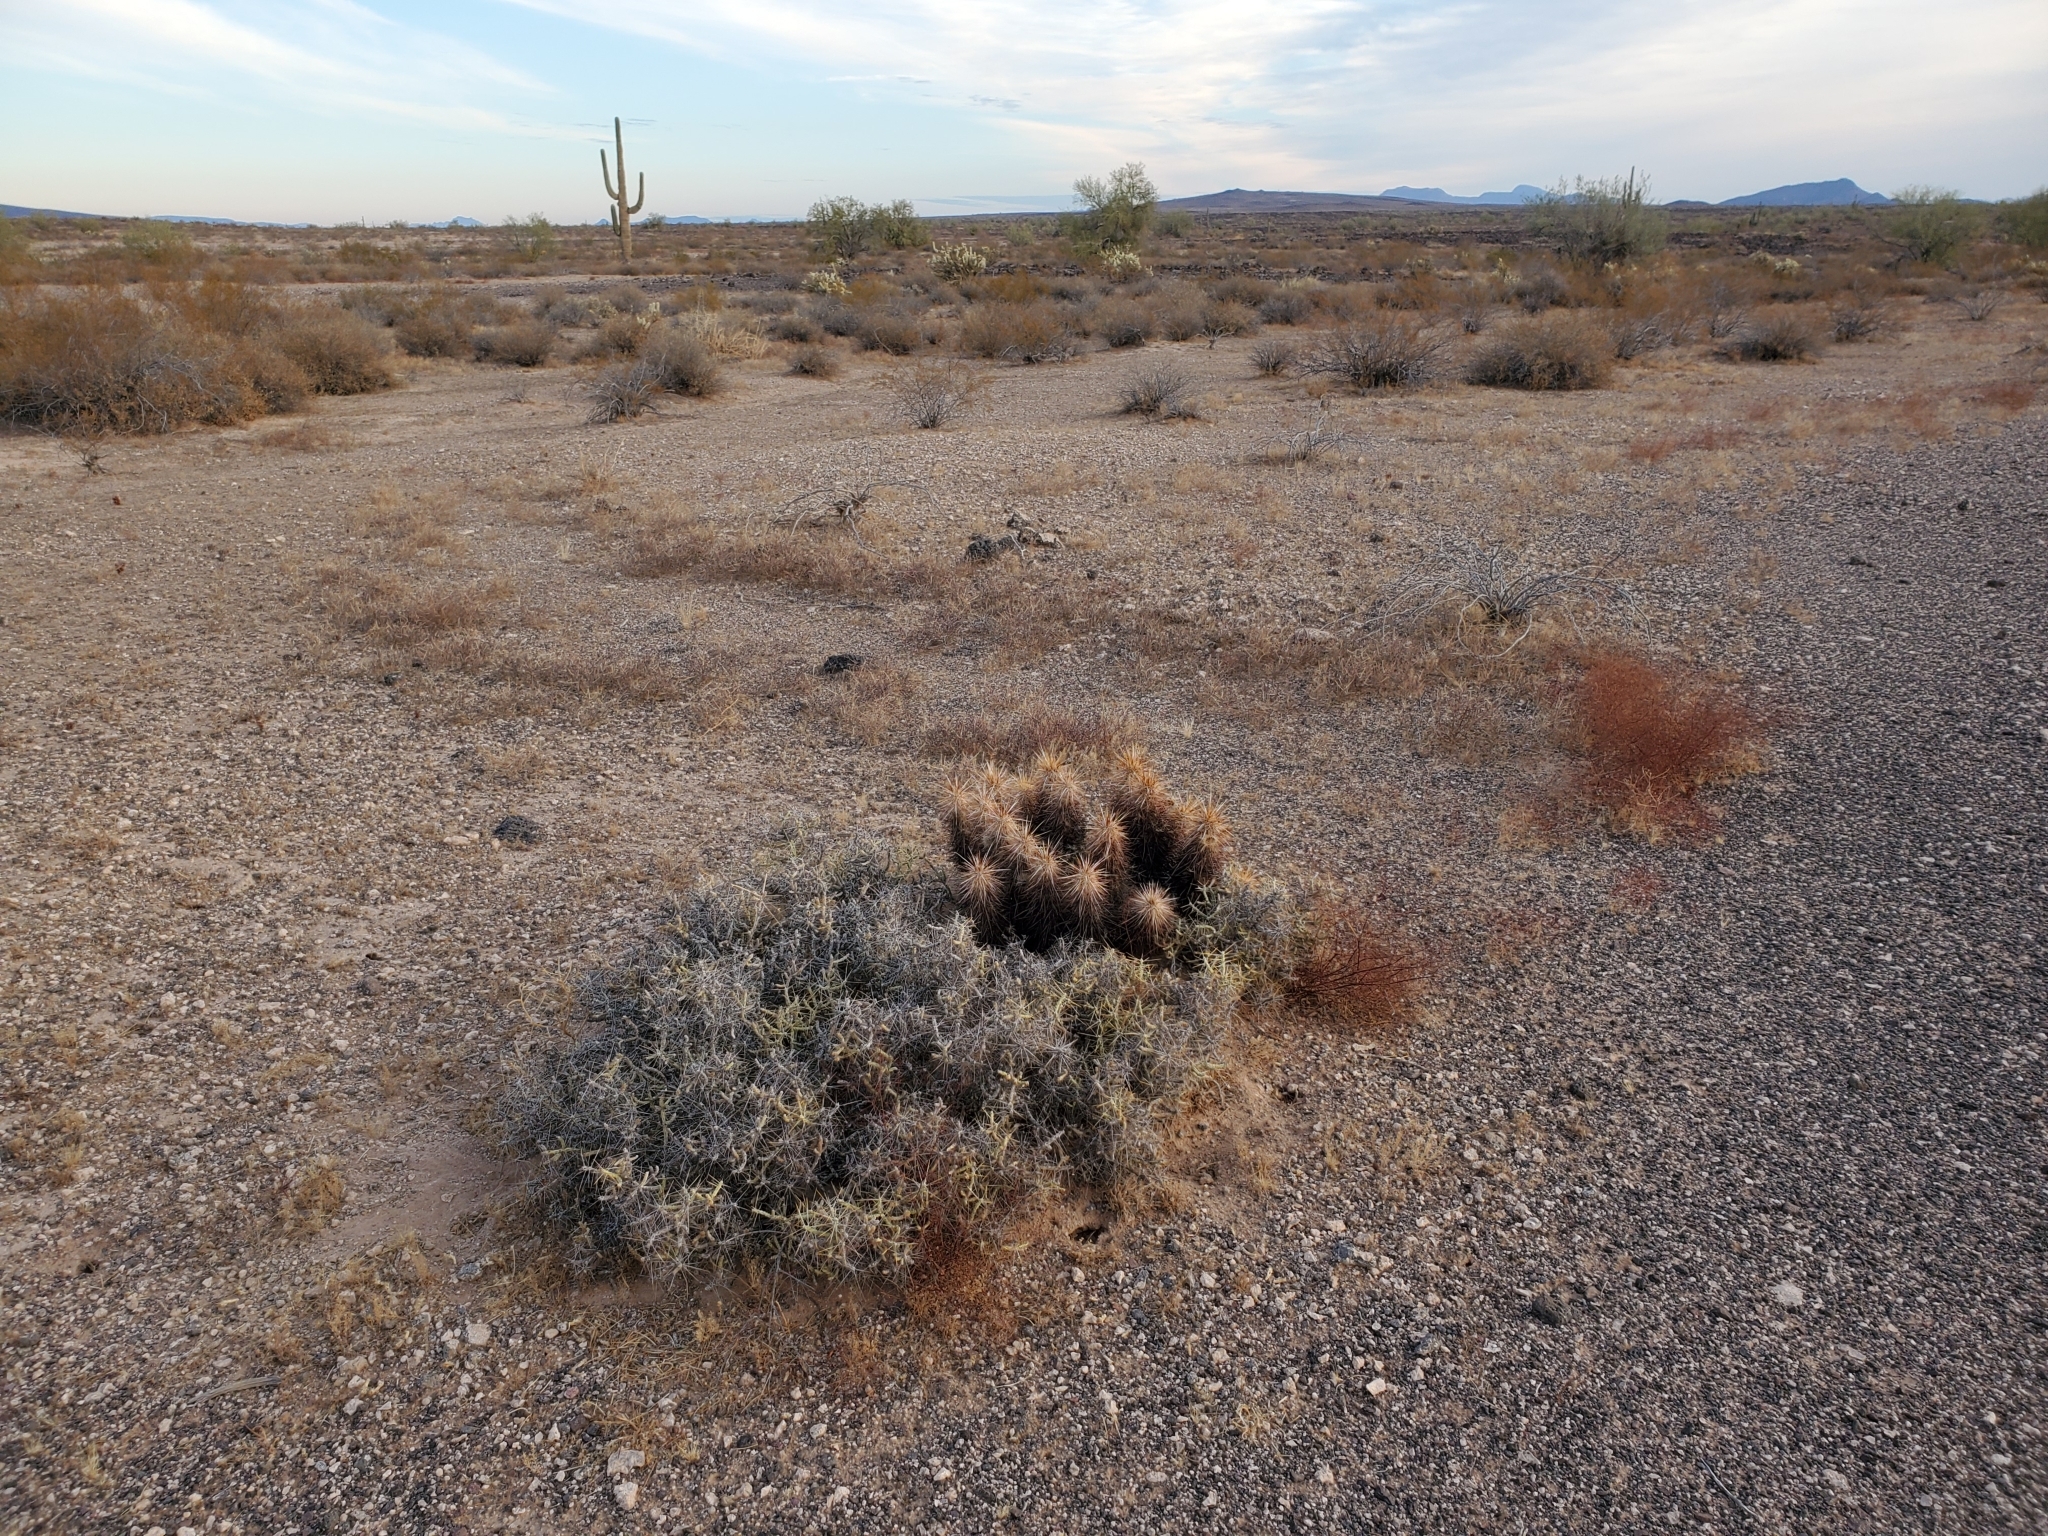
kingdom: Plantae
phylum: Tracheophyta
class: Magnoliopsida
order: Caryophyllales
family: Cactaceae
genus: Cylindropuntia
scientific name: Cylindropuntia ramosissima
